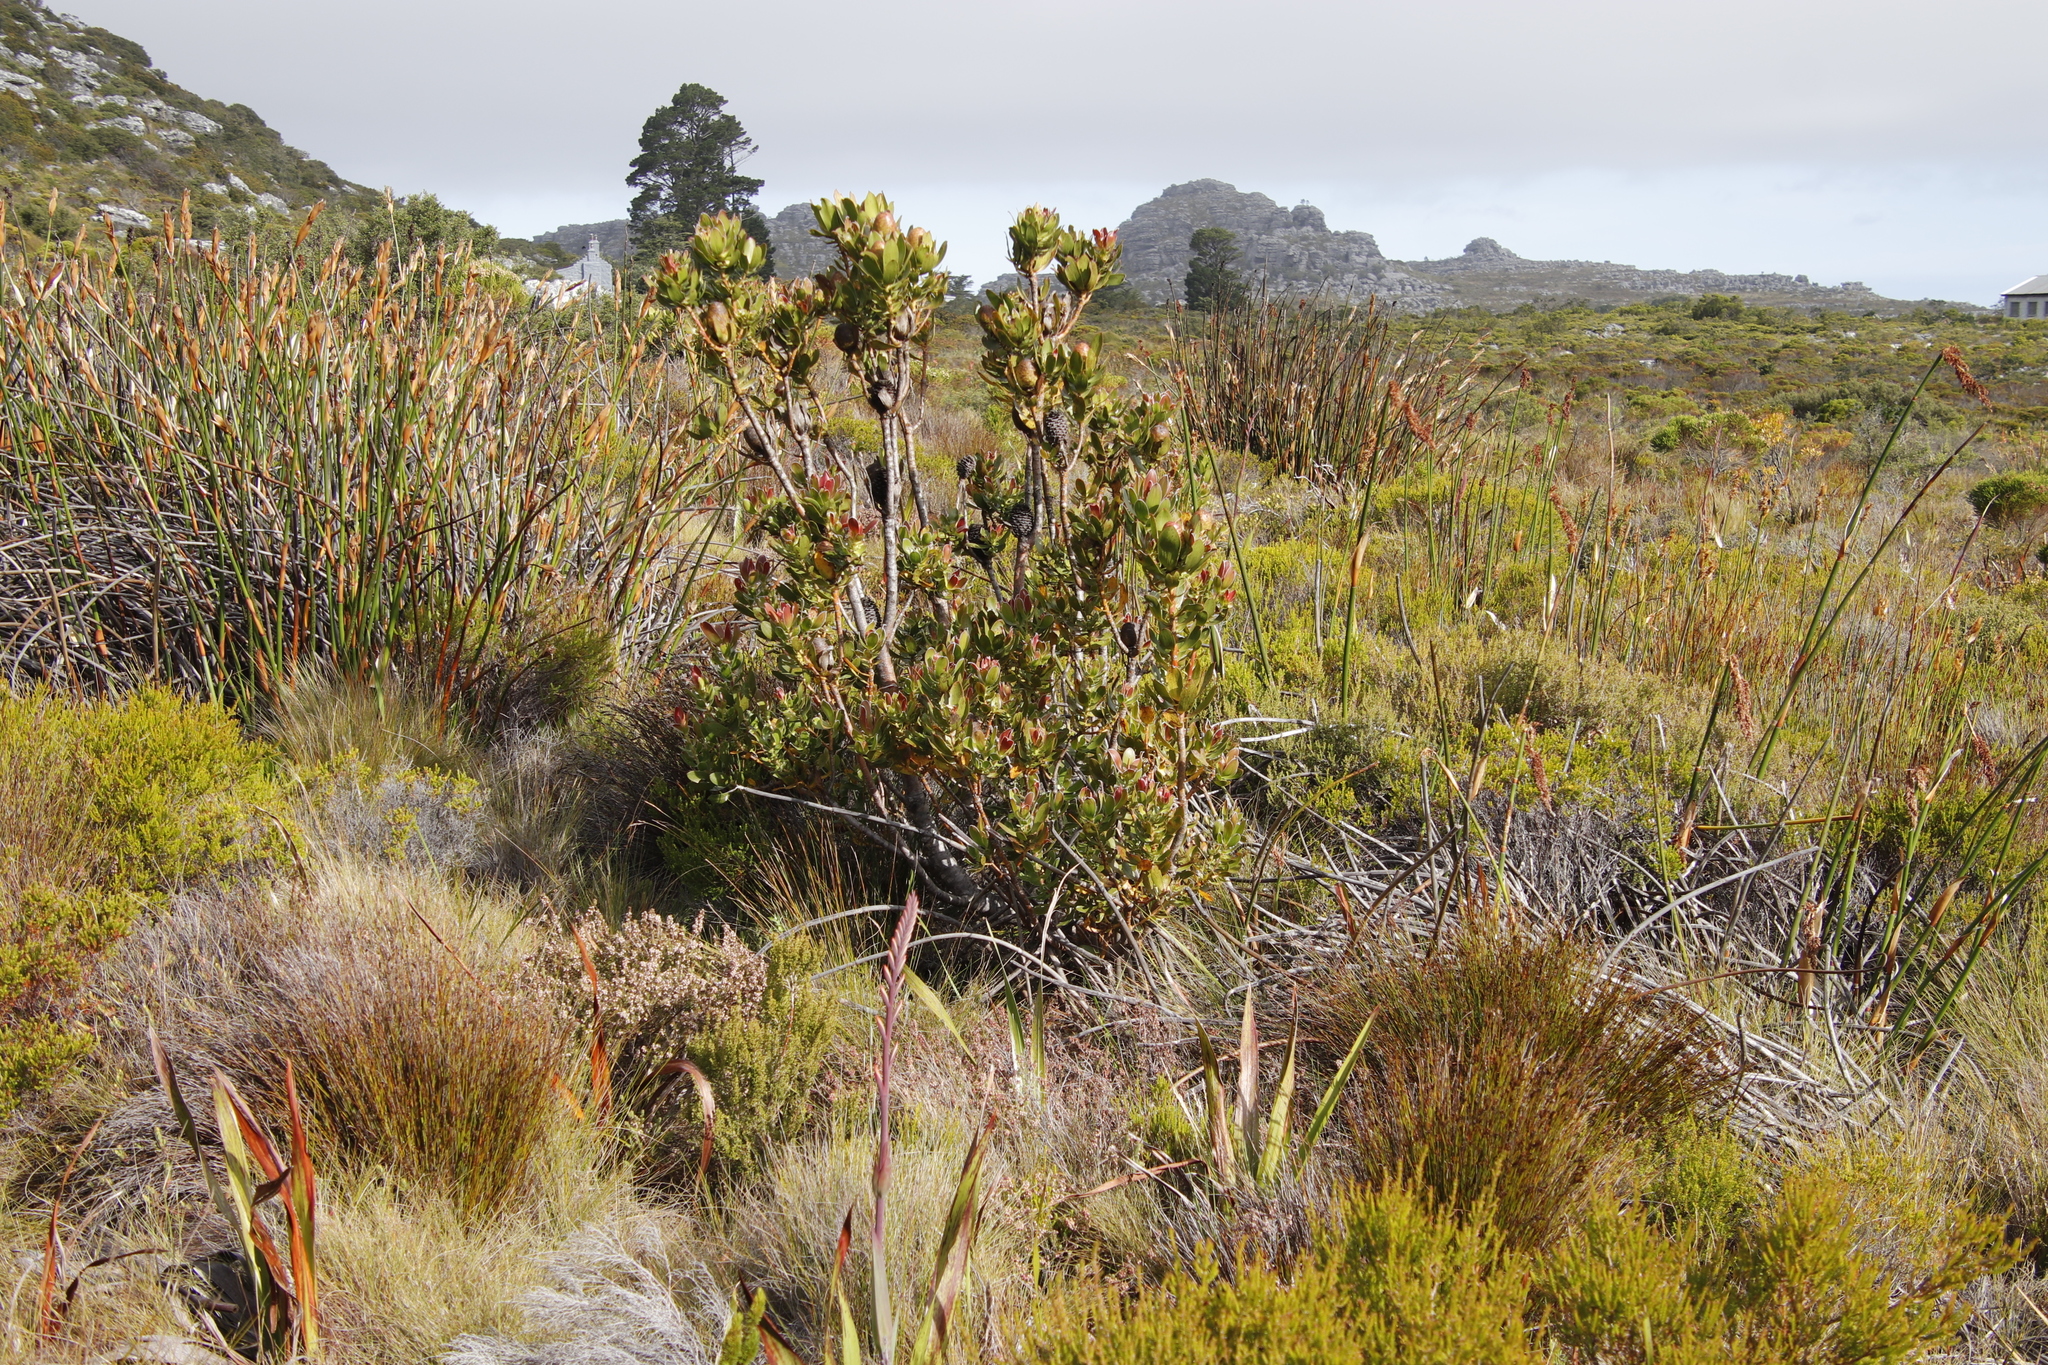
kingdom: Plantae
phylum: Tracheophyta
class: Magnoliopsida
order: Proteales
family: Proteaceae
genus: Leucadendron
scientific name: Leucadendron strobilinum
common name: Mountain rose
